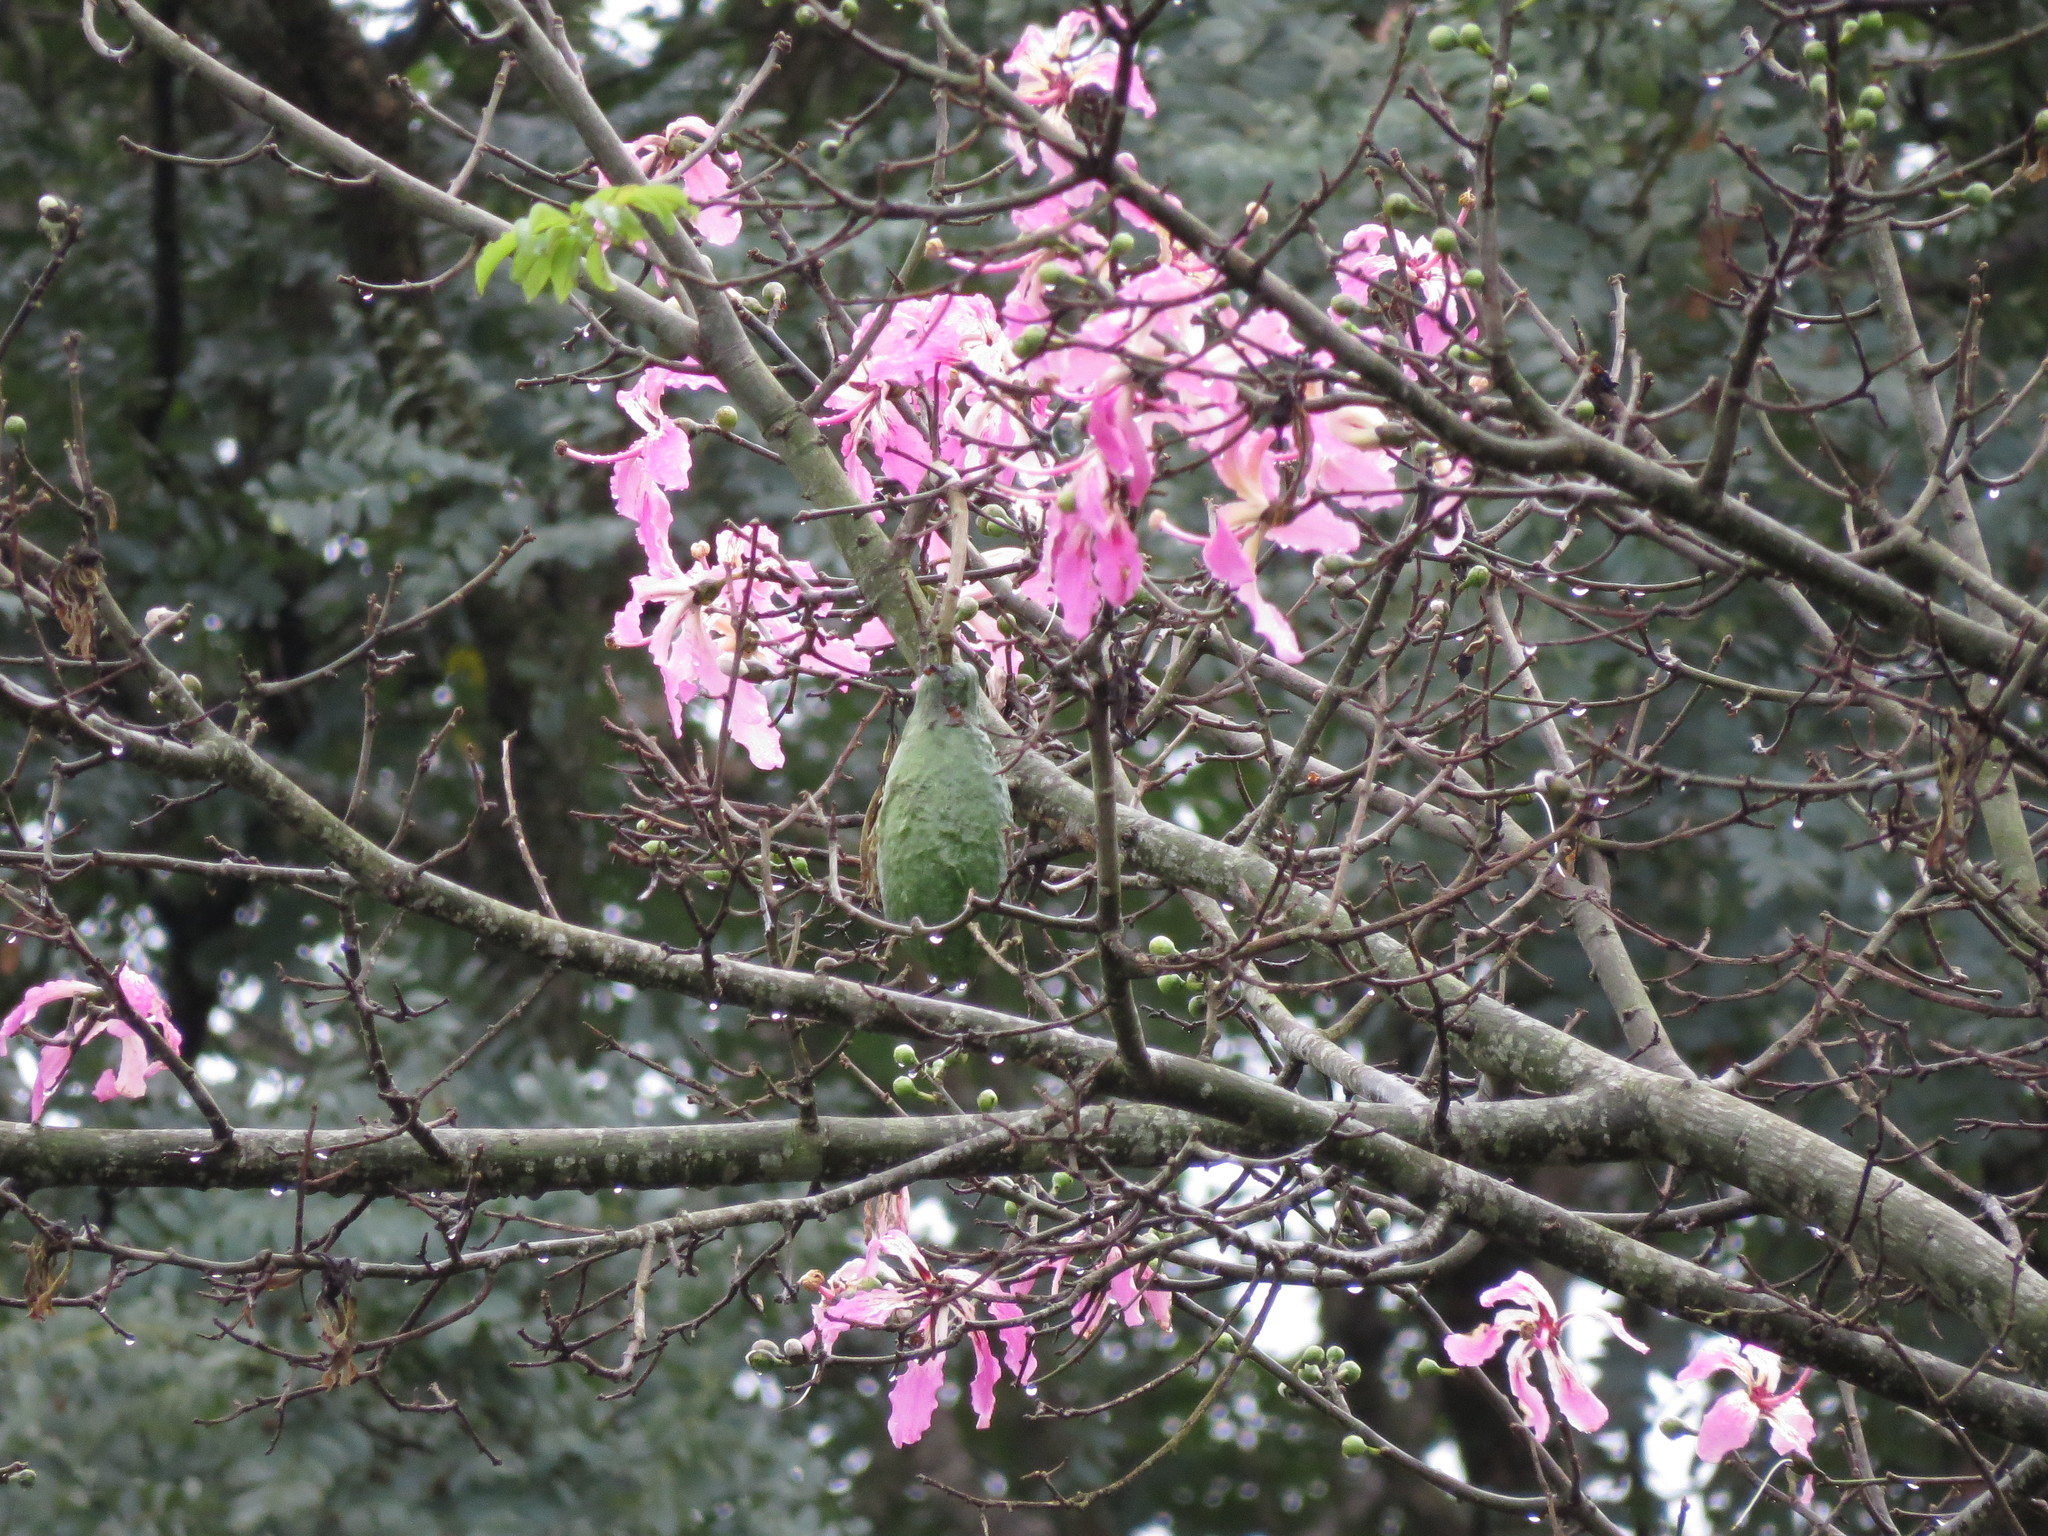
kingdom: Plantae
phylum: Tracheophyta
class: Magnoliopsida
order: Malvales
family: Malvaceae
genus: Ceiba
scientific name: Ceiba speciosa
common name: Silk-floss tree
